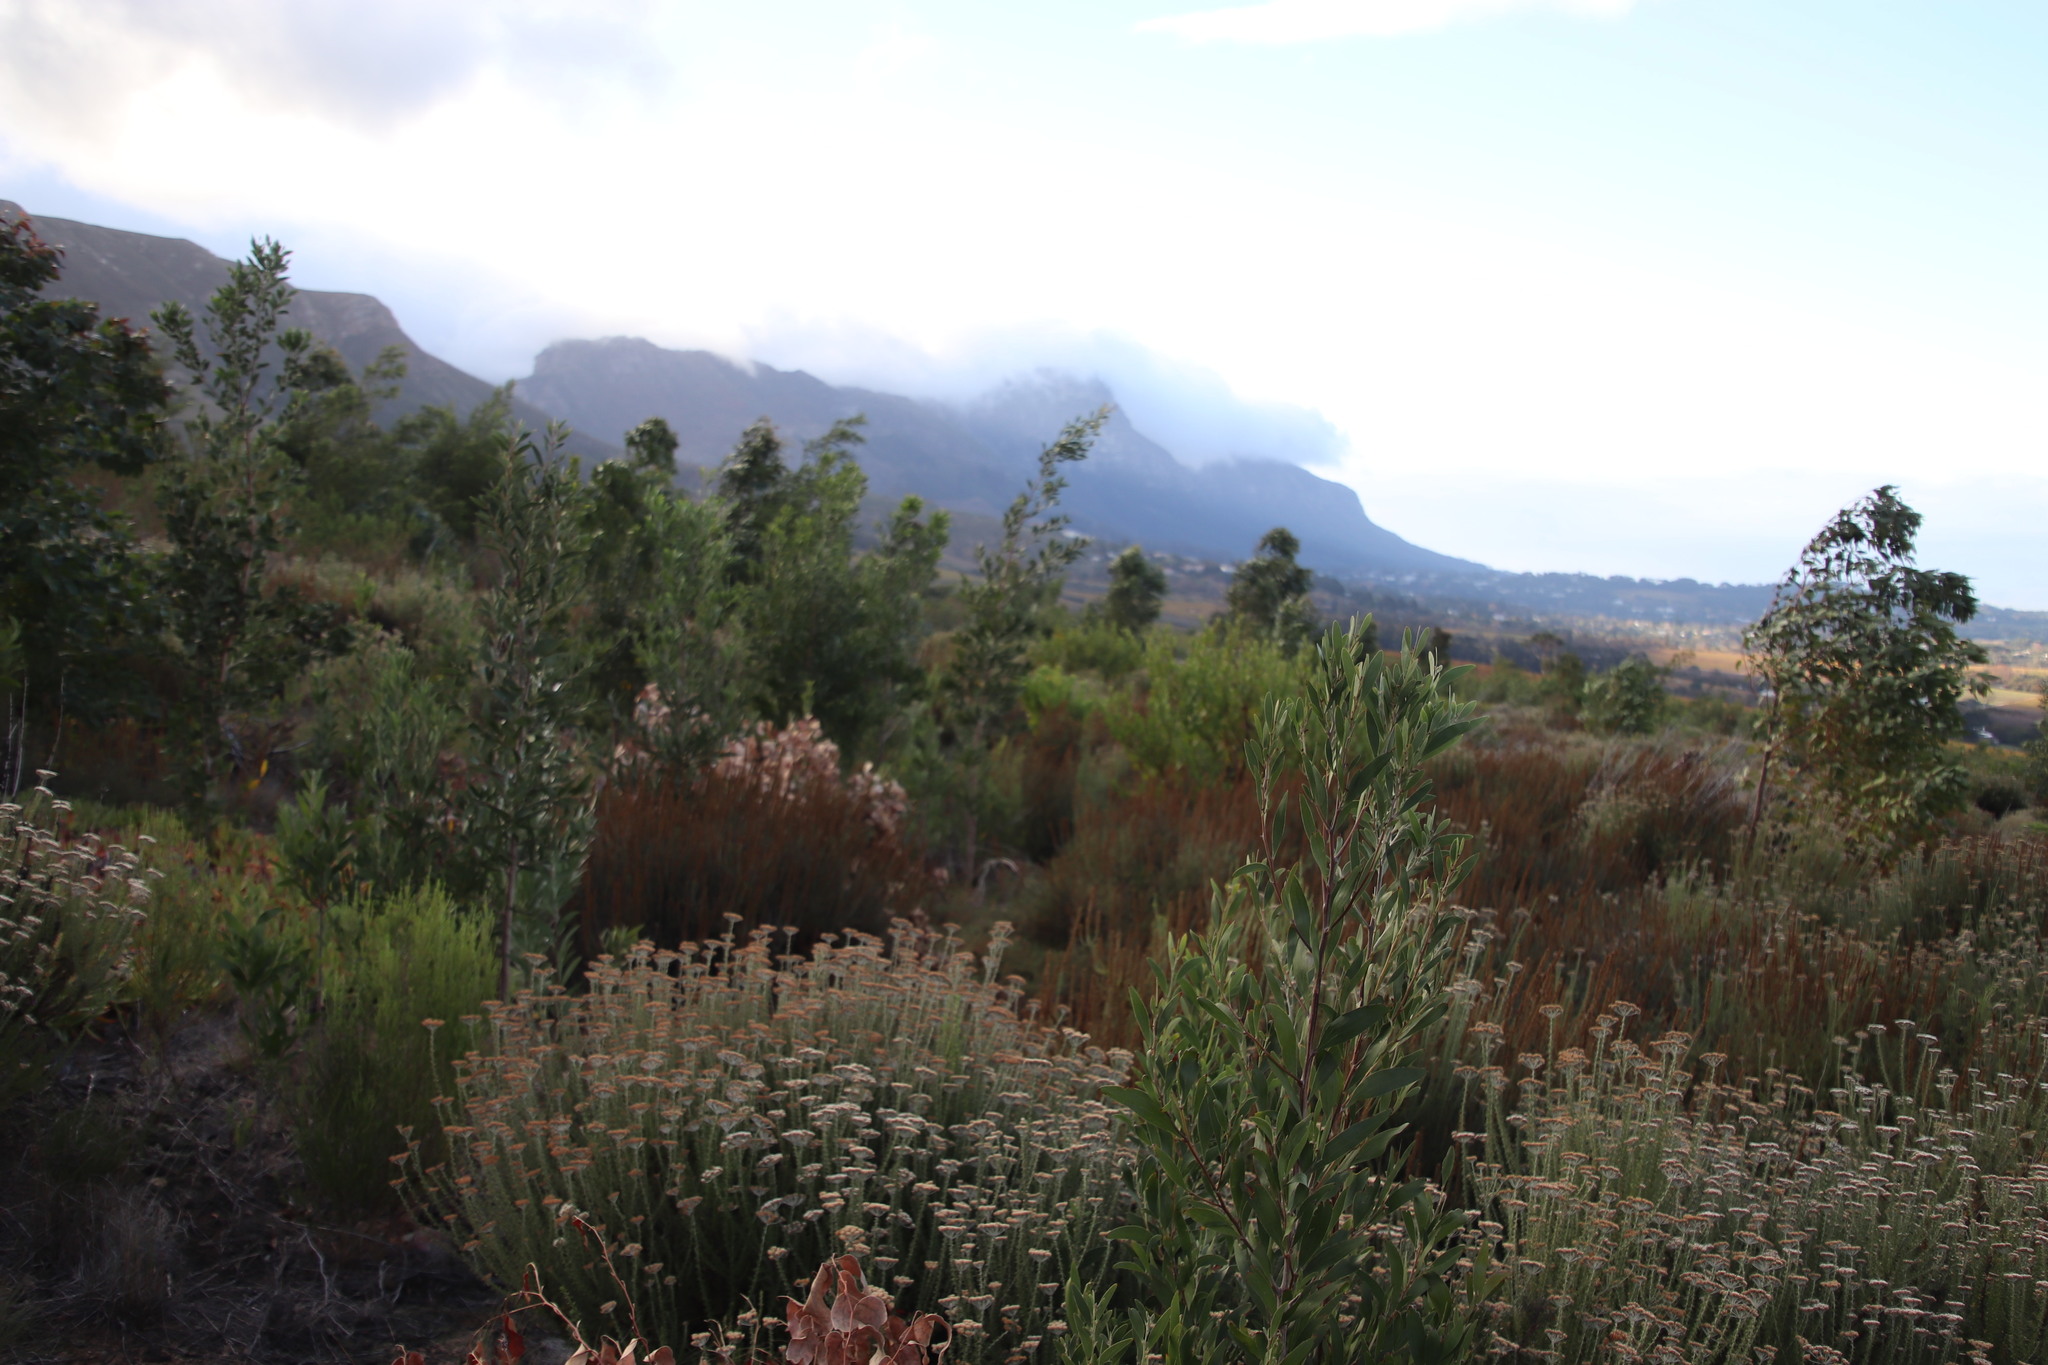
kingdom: Plantae
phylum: Tracheophyta
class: Magnoliopsida
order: Fabales
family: Fabaceae
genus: Acacia
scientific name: Acacia melanoxylon
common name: Blackwood
